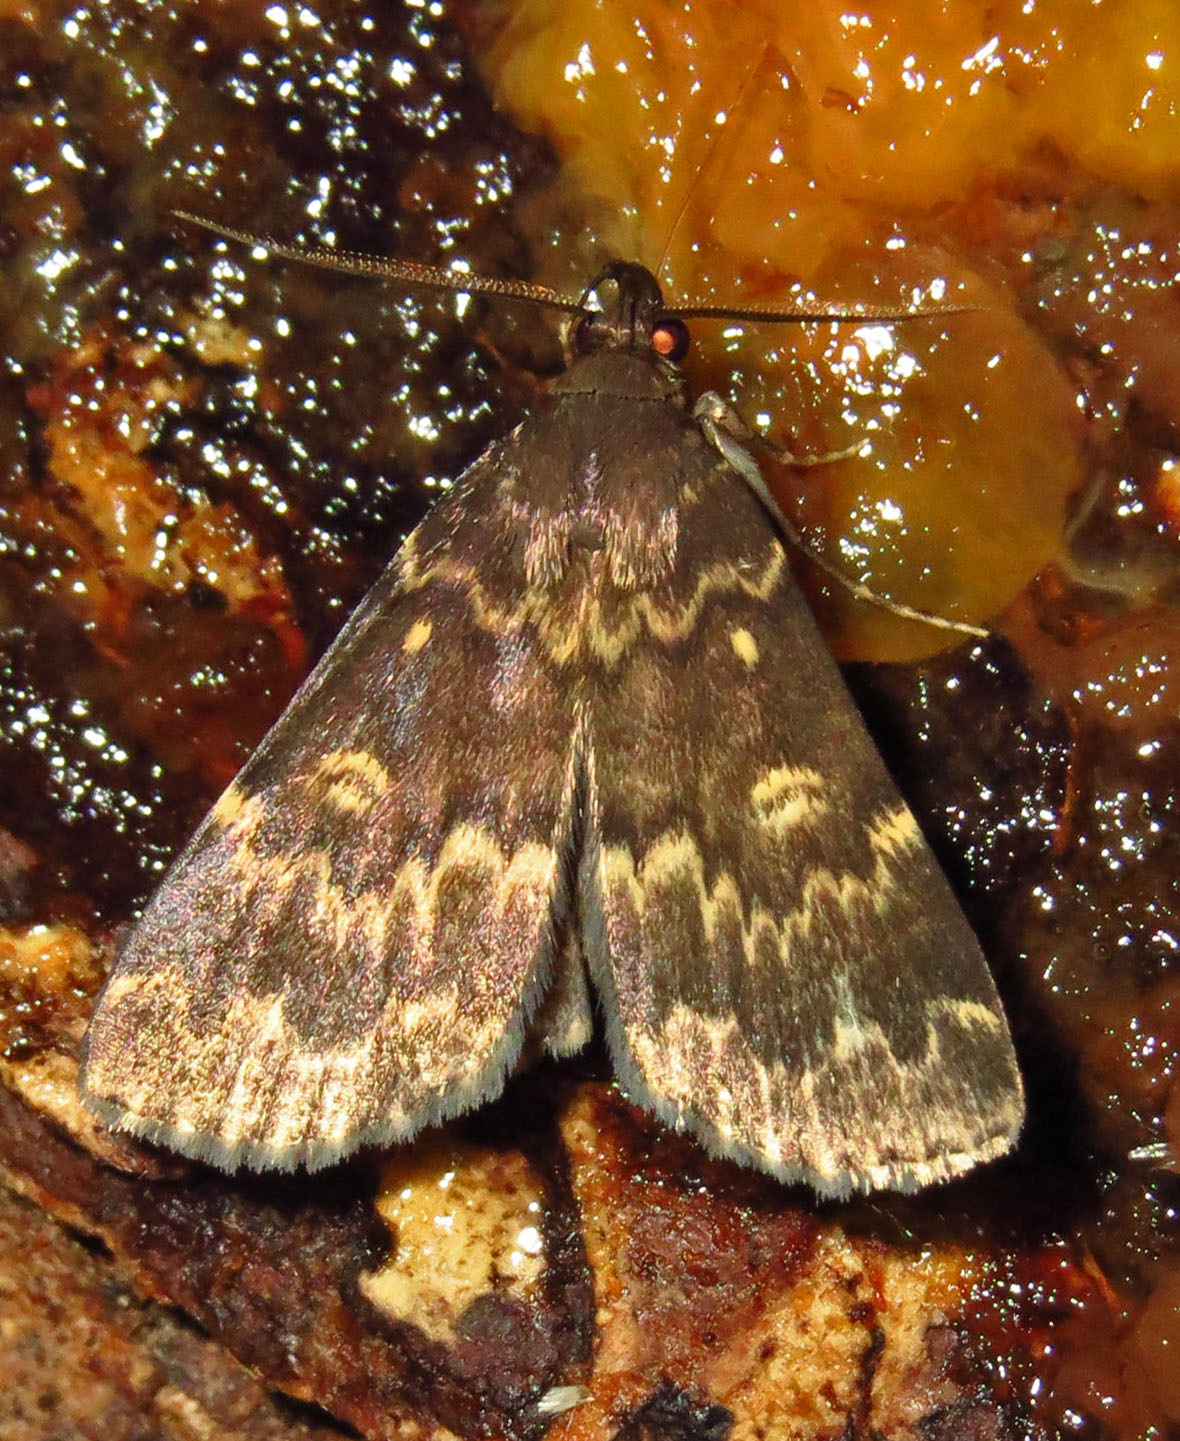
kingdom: Animalia
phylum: Arthropoda
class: Insecta
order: Lepidoptera
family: Erebidae
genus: Idia
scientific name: Idia lubricalis
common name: Twin-striped tabby
